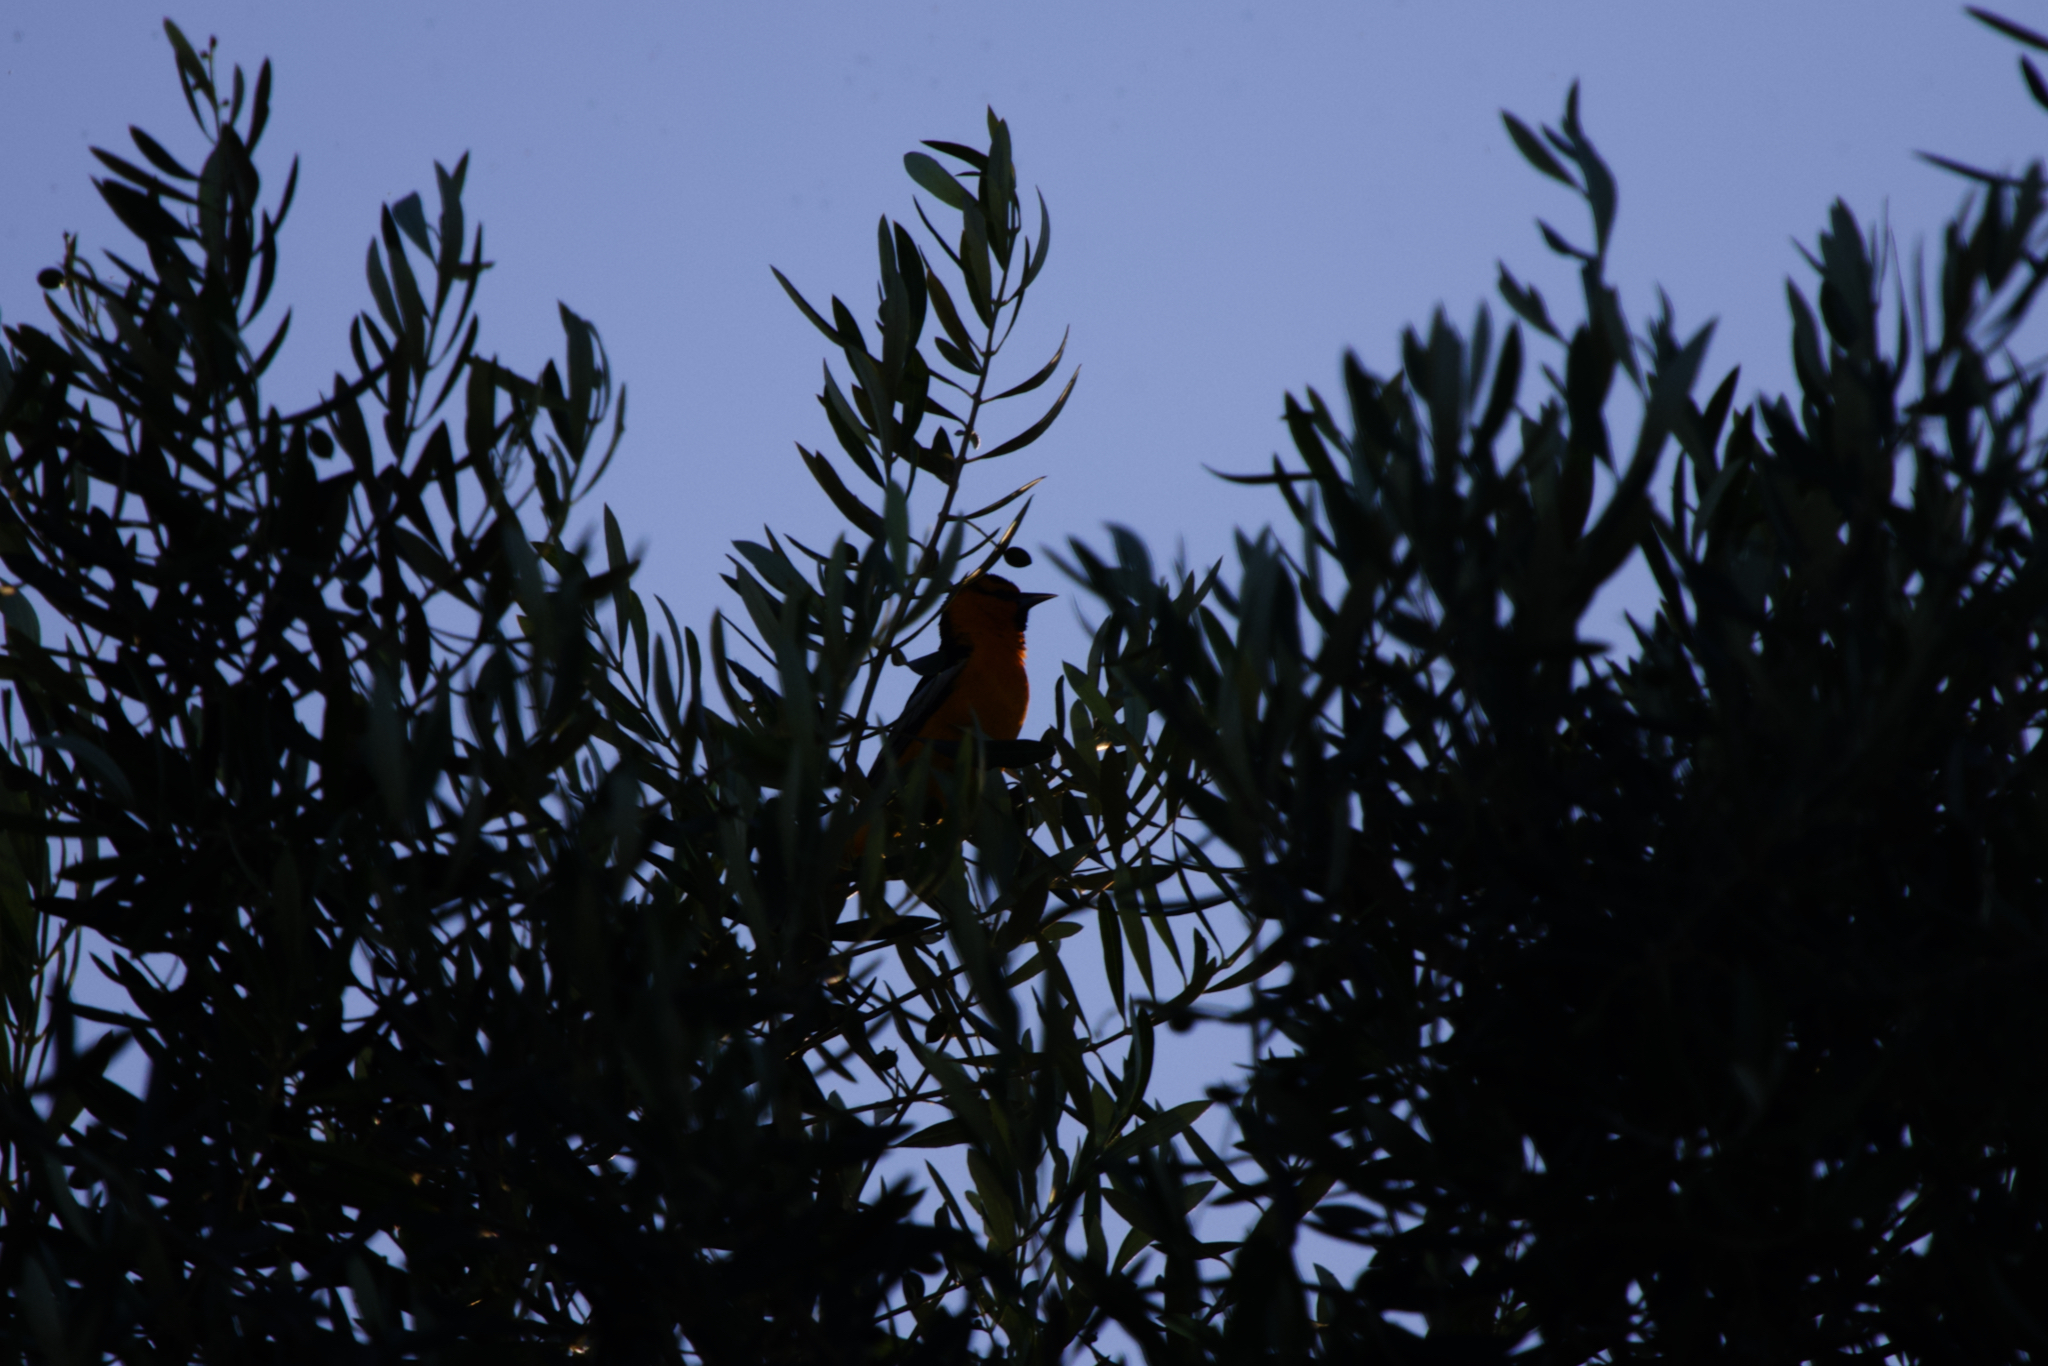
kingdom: Animalia
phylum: Chordata
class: Aves
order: Passeriformes
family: Icteridae
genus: Icterus
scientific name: Icterus bullockii
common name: Bullock's oriole
